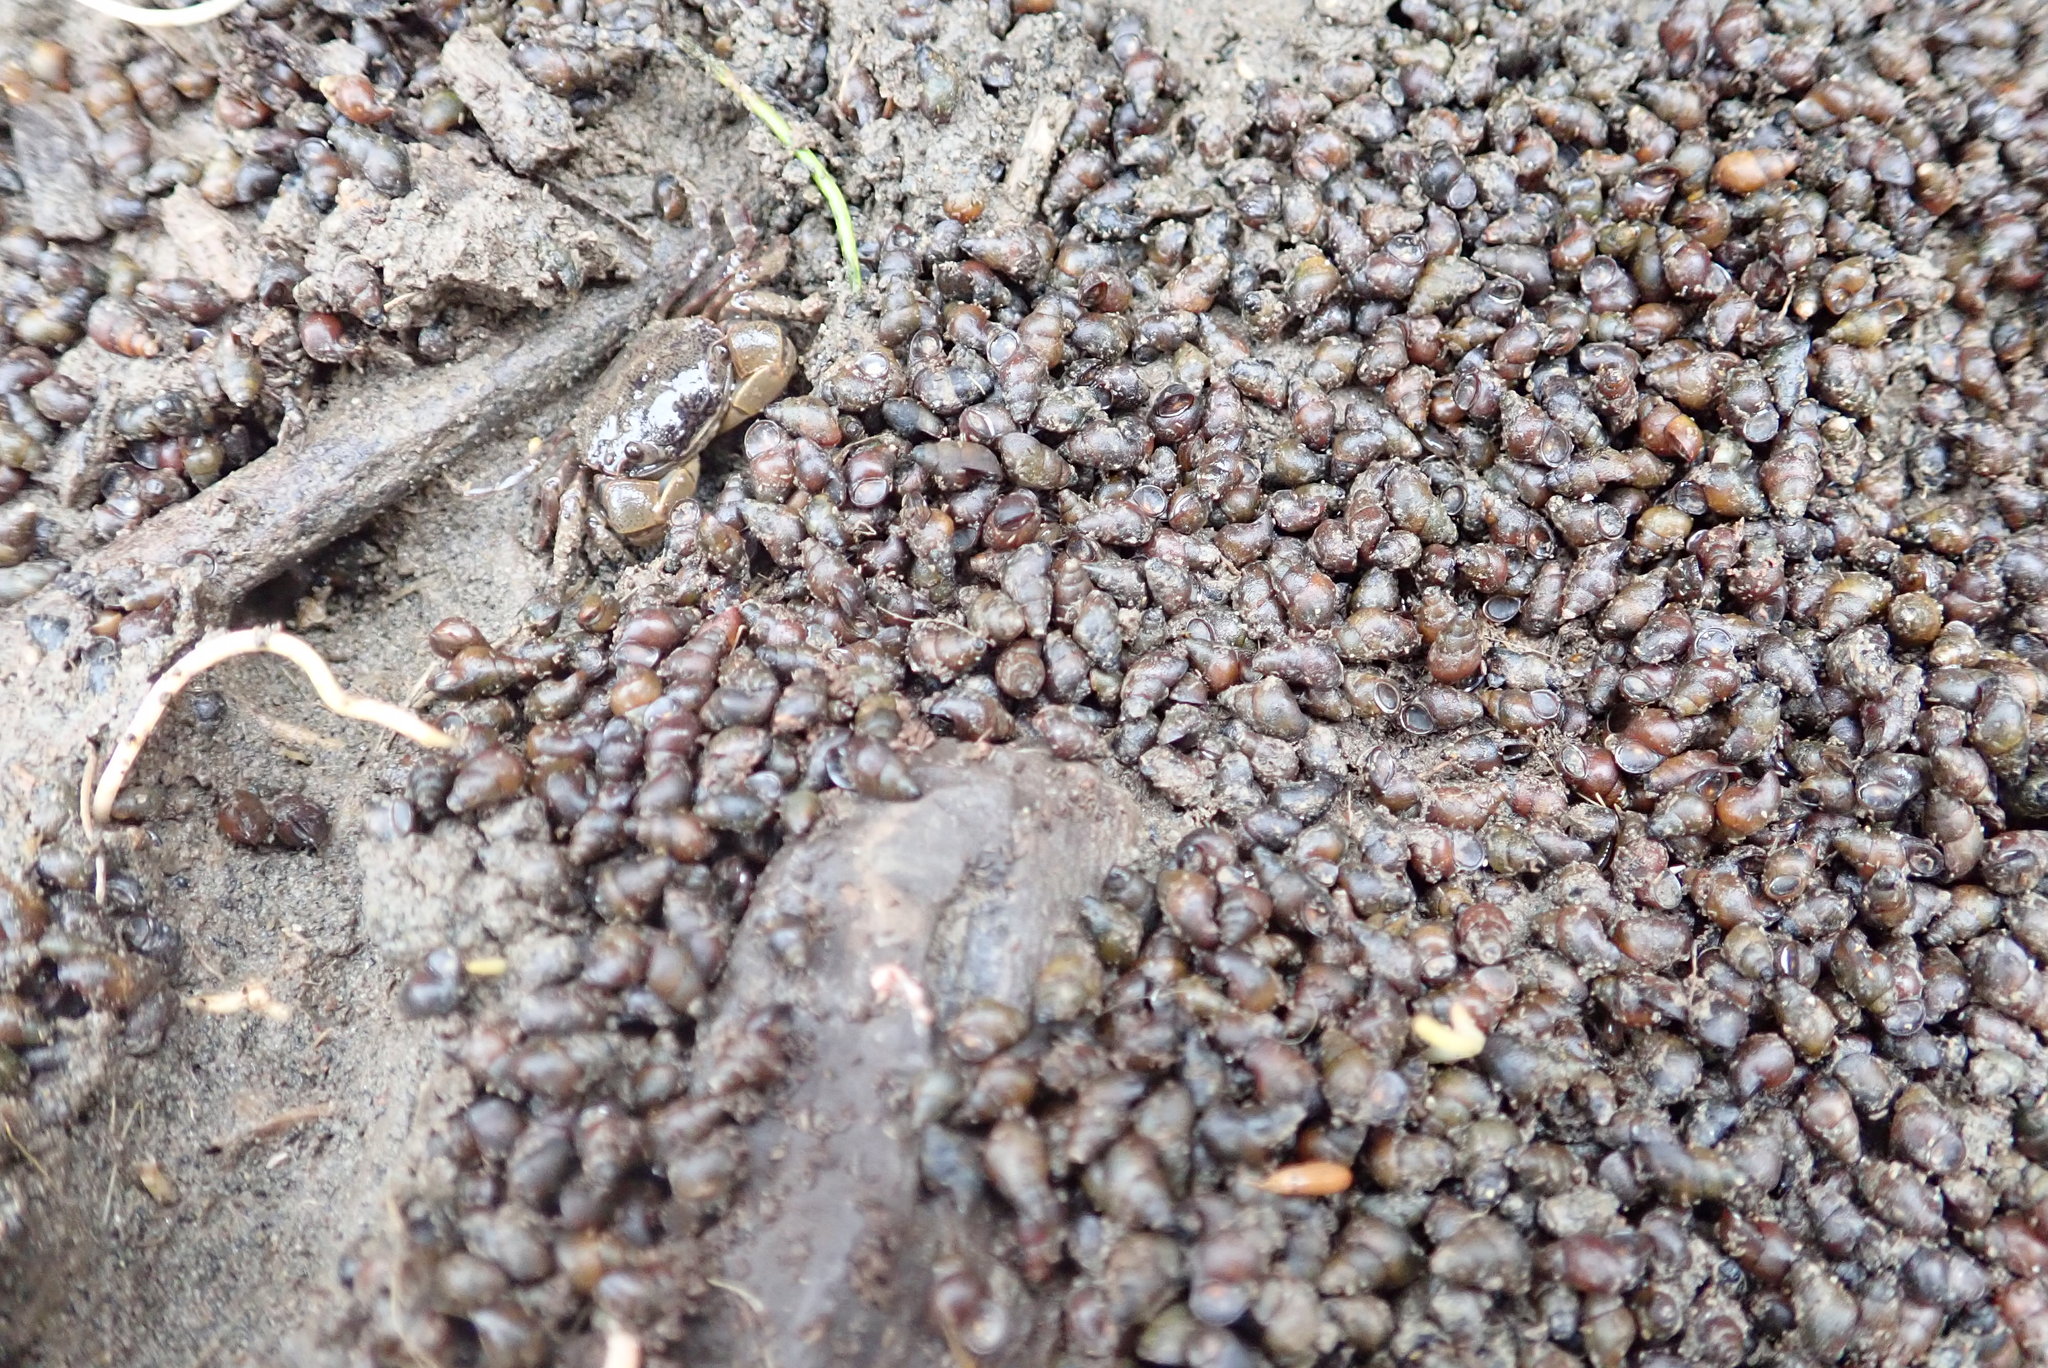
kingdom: Animalia
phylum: Mollusca
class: Gastropoda
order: Littorinimorpha
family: Tateidae
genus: Potamopyrgus
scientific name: Potamopyrgus estuarinus
